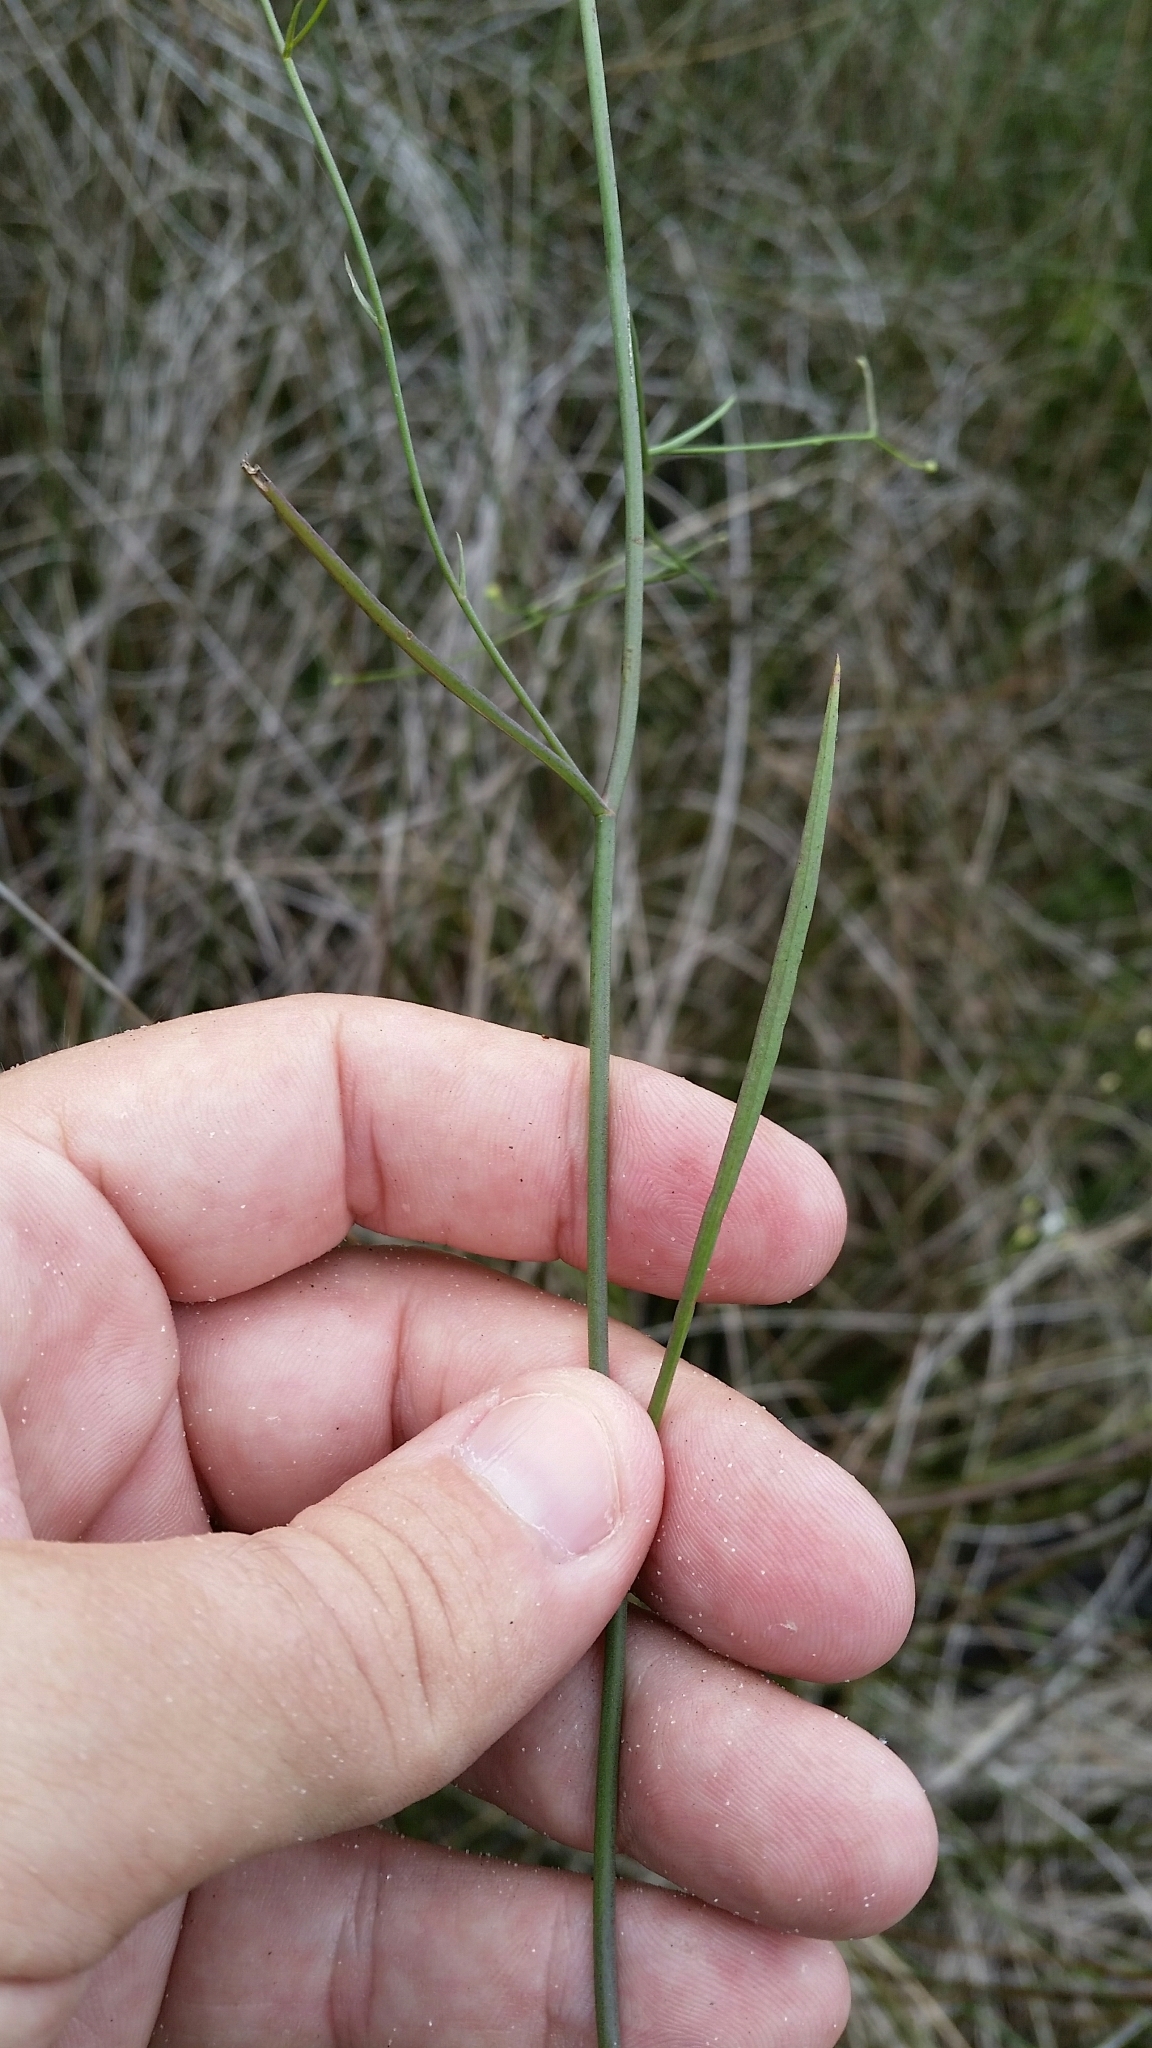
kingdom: Plantae
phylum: Tracheophyta
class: Magnoliopsida
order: Asterales
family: Asteraceae
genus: Symphyotrichum
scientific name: Symphyotrichum tenuifolium
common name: Perennial salt-marsh aster
